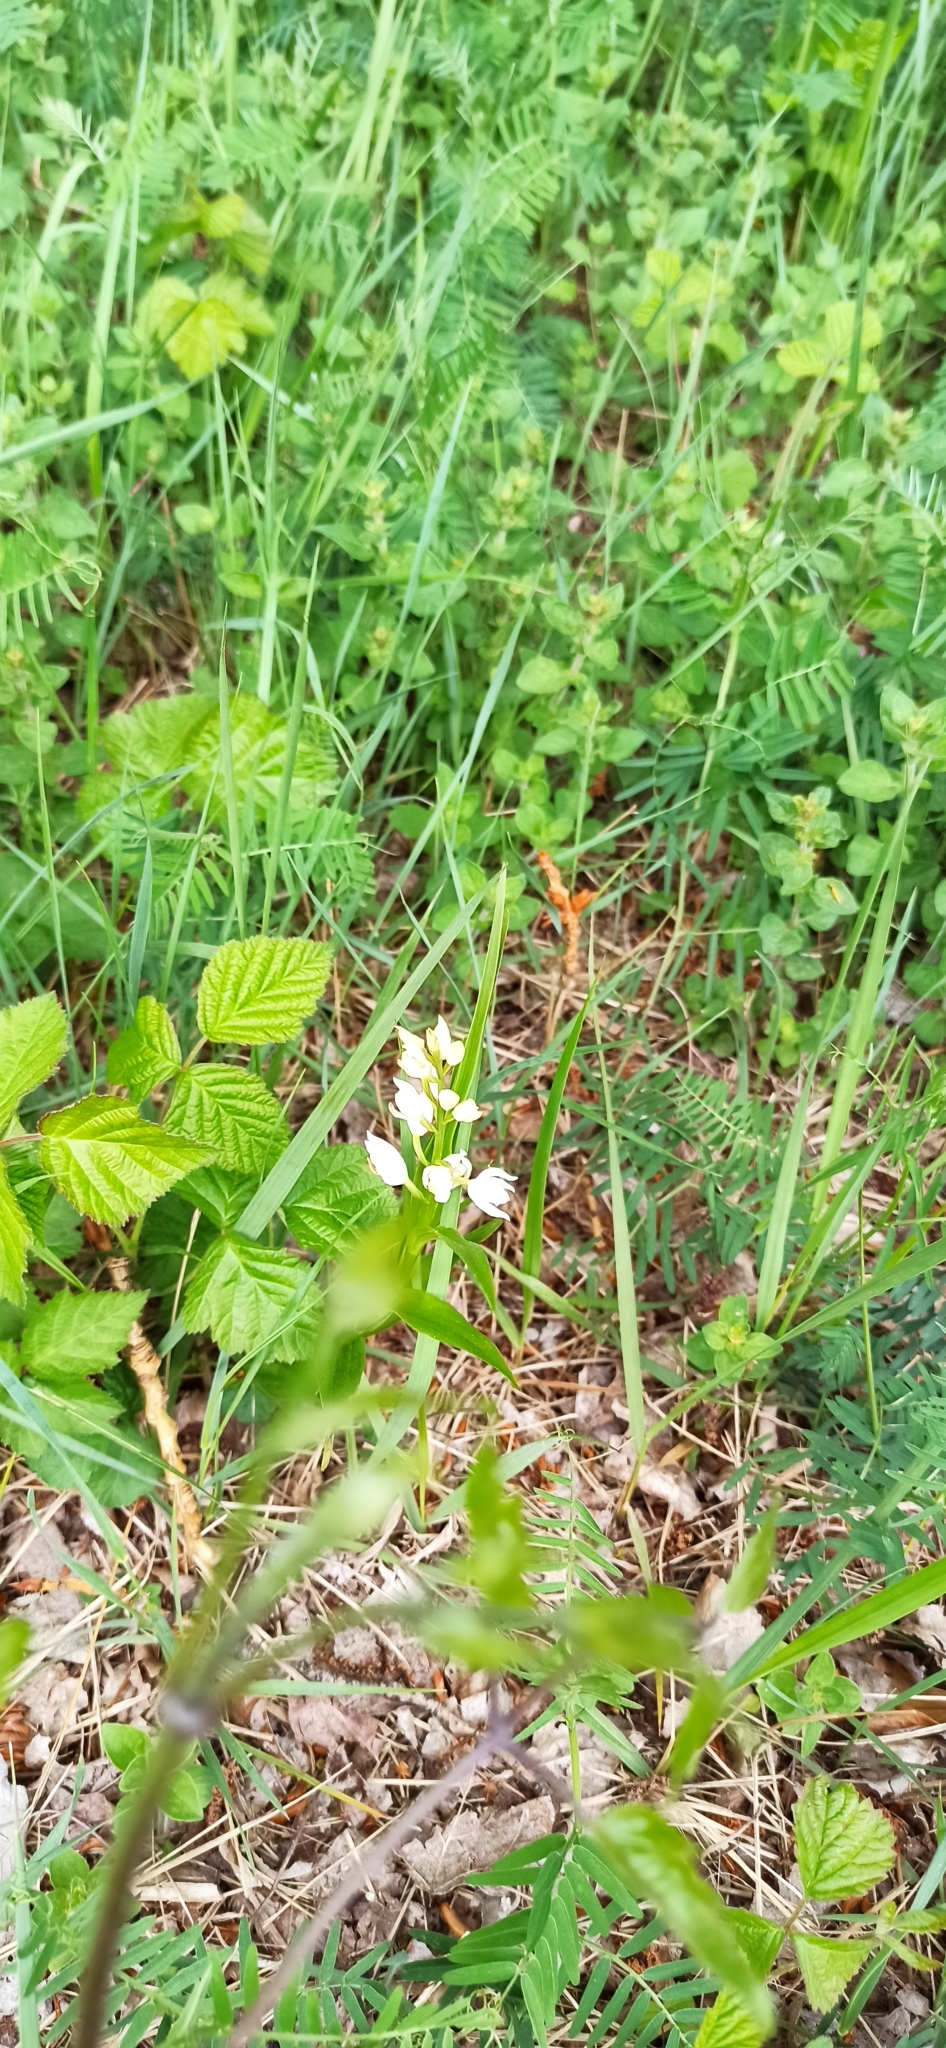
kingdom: Plantae
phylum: Tracheophyta
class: Liliopsida
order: Asparagales
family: Orchidaceae
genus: Cephalanthera
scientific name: Cephalanthera longifolia
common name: Narrow-leaved helleborine
